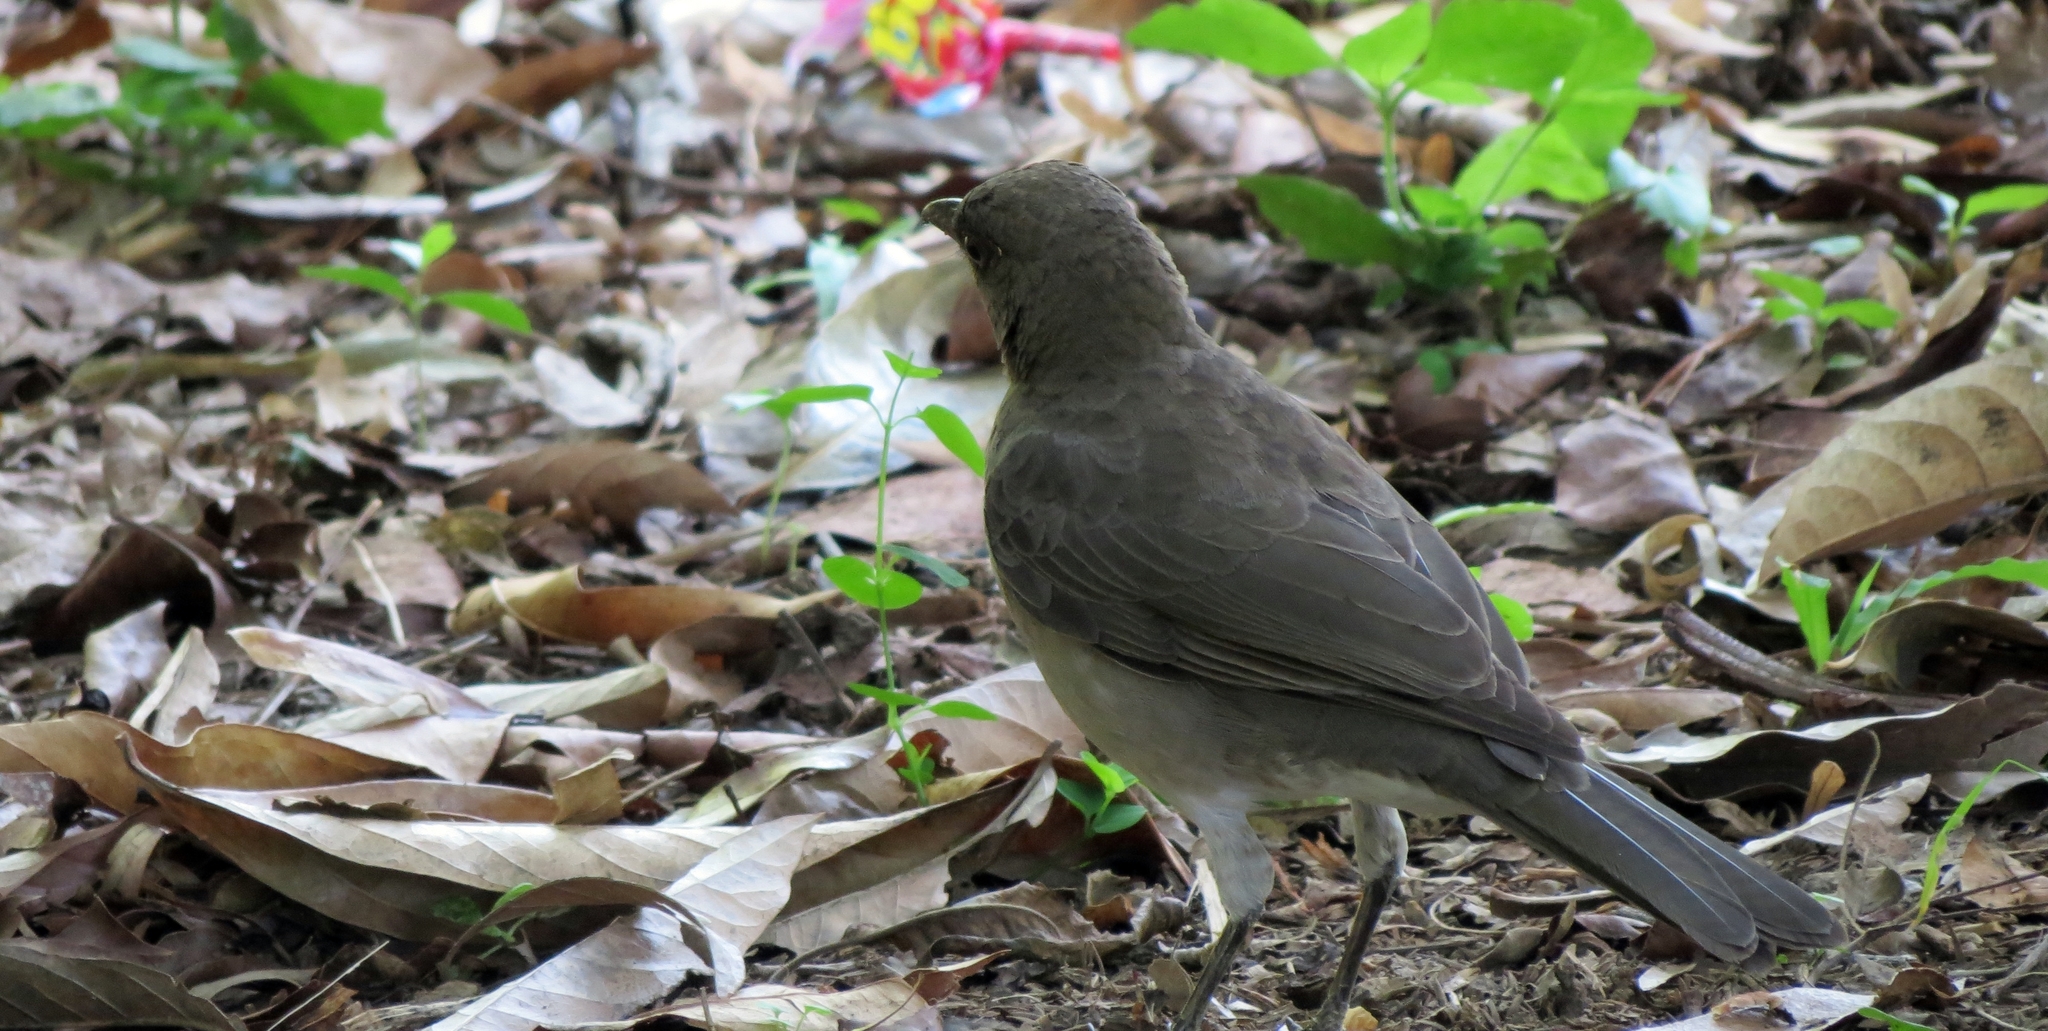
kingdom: Animalia
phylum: Chordata
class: Aves
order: Passeriformes
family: Turdidae
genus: Turdus
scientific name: Turdus ignobilis
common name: Black-billed thrush
